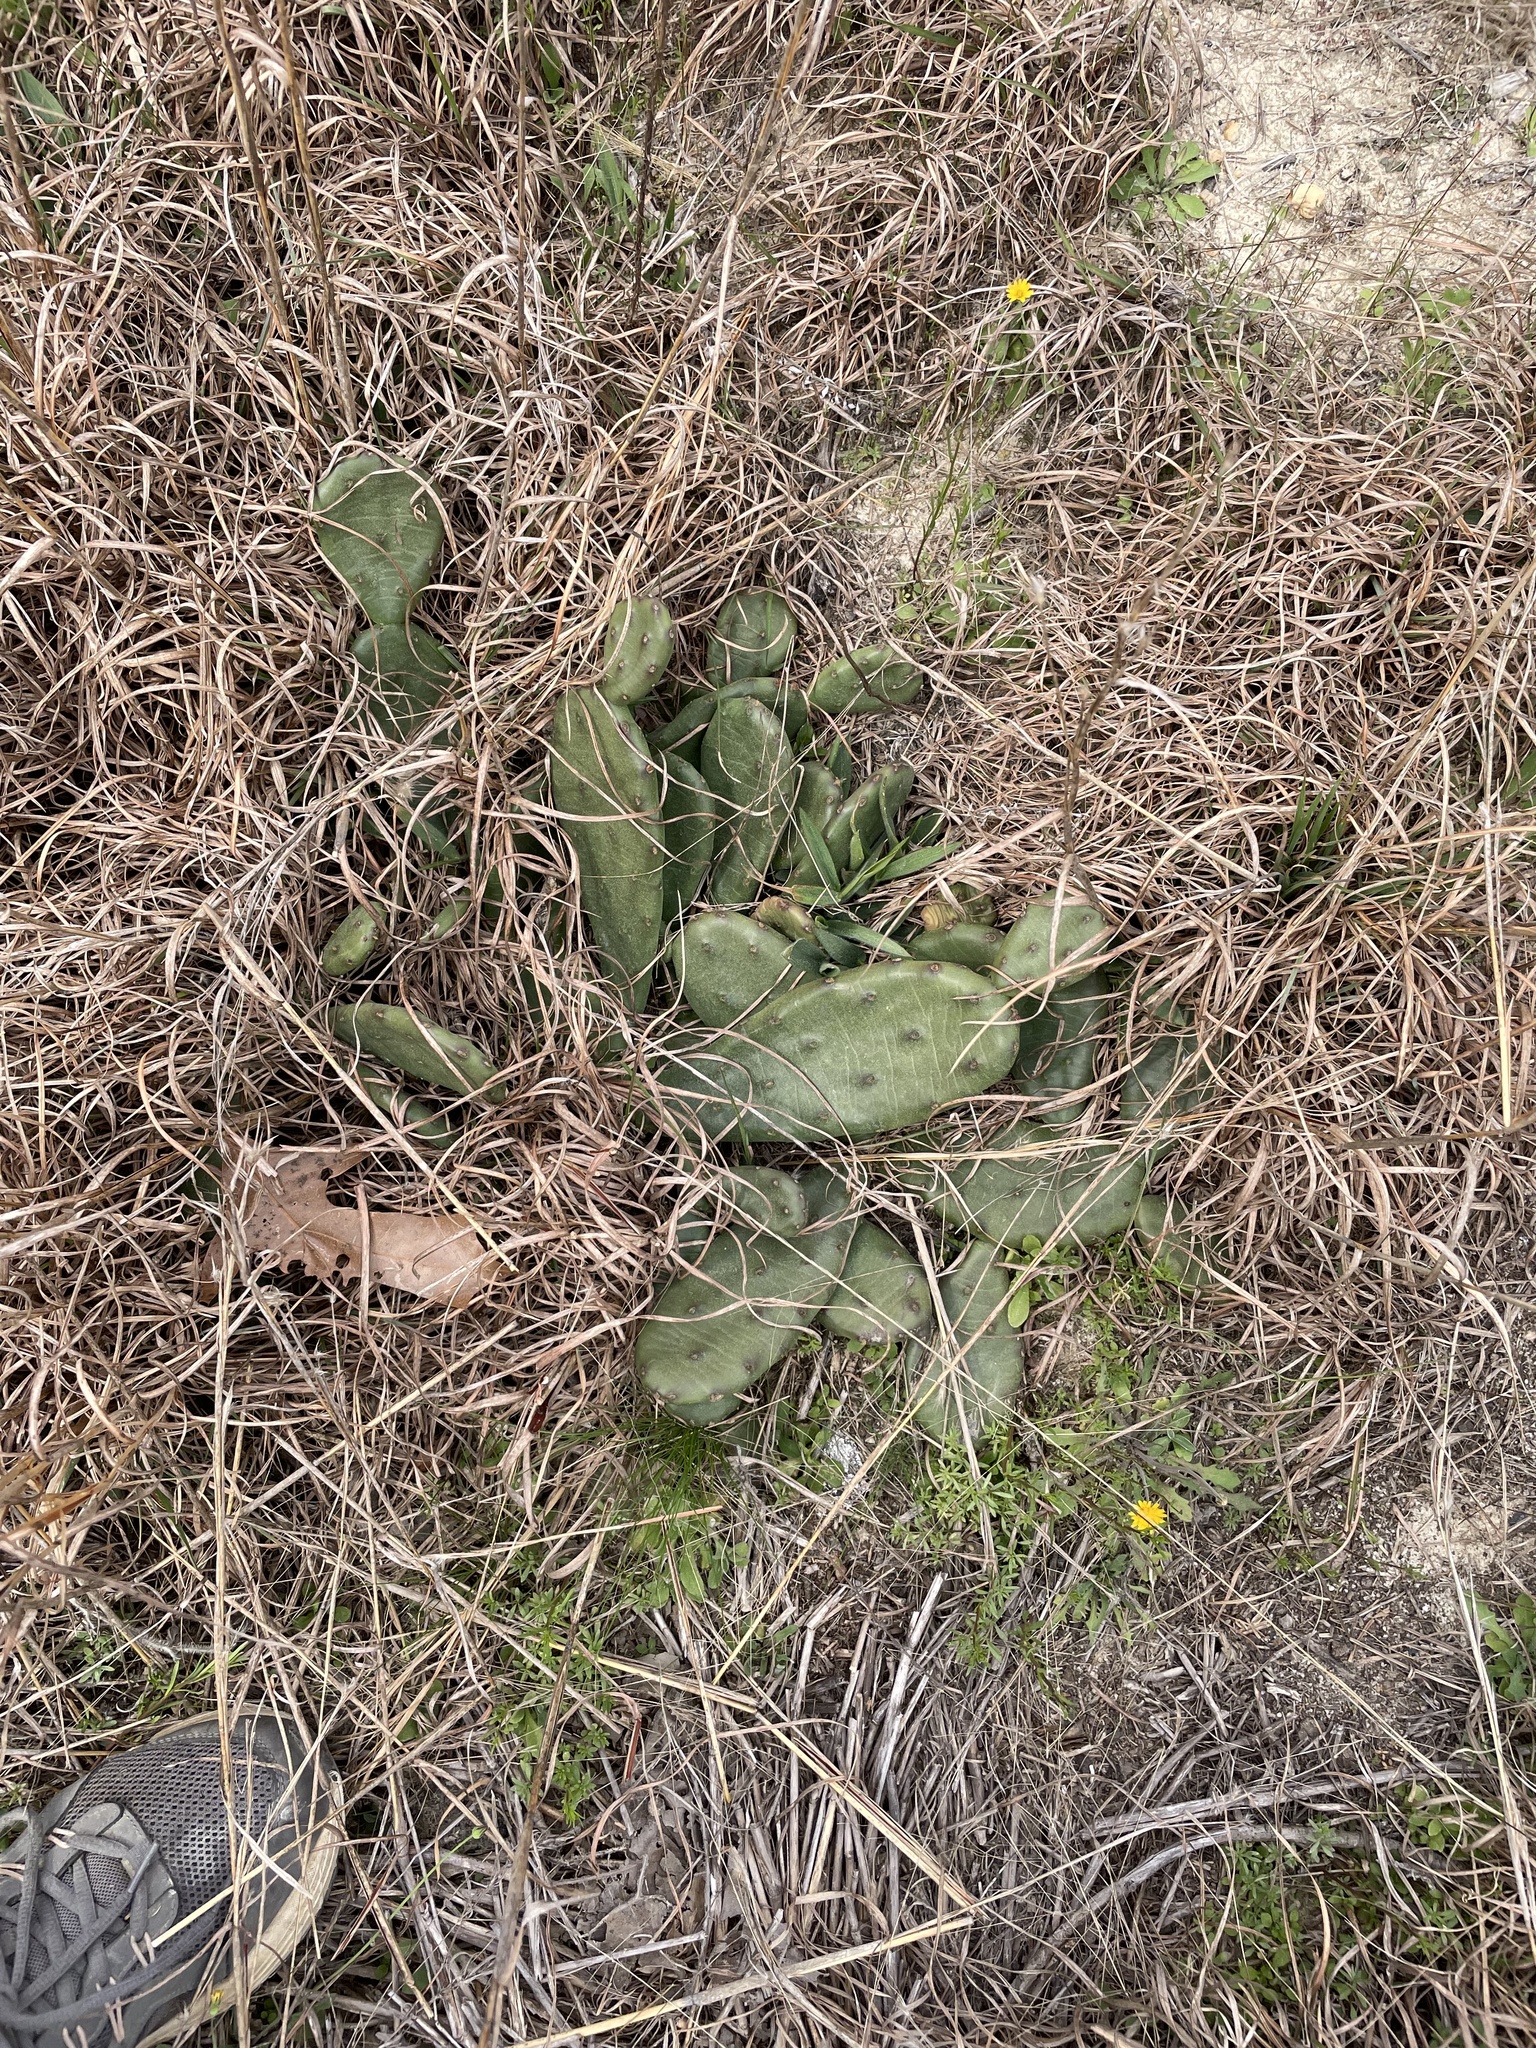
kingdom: Plantae
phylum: Tracheophyta
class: Magnoliopsida
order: Caryophyllales
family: Cactaceae
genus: Opuntia
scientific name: Opuntia mesacantha
